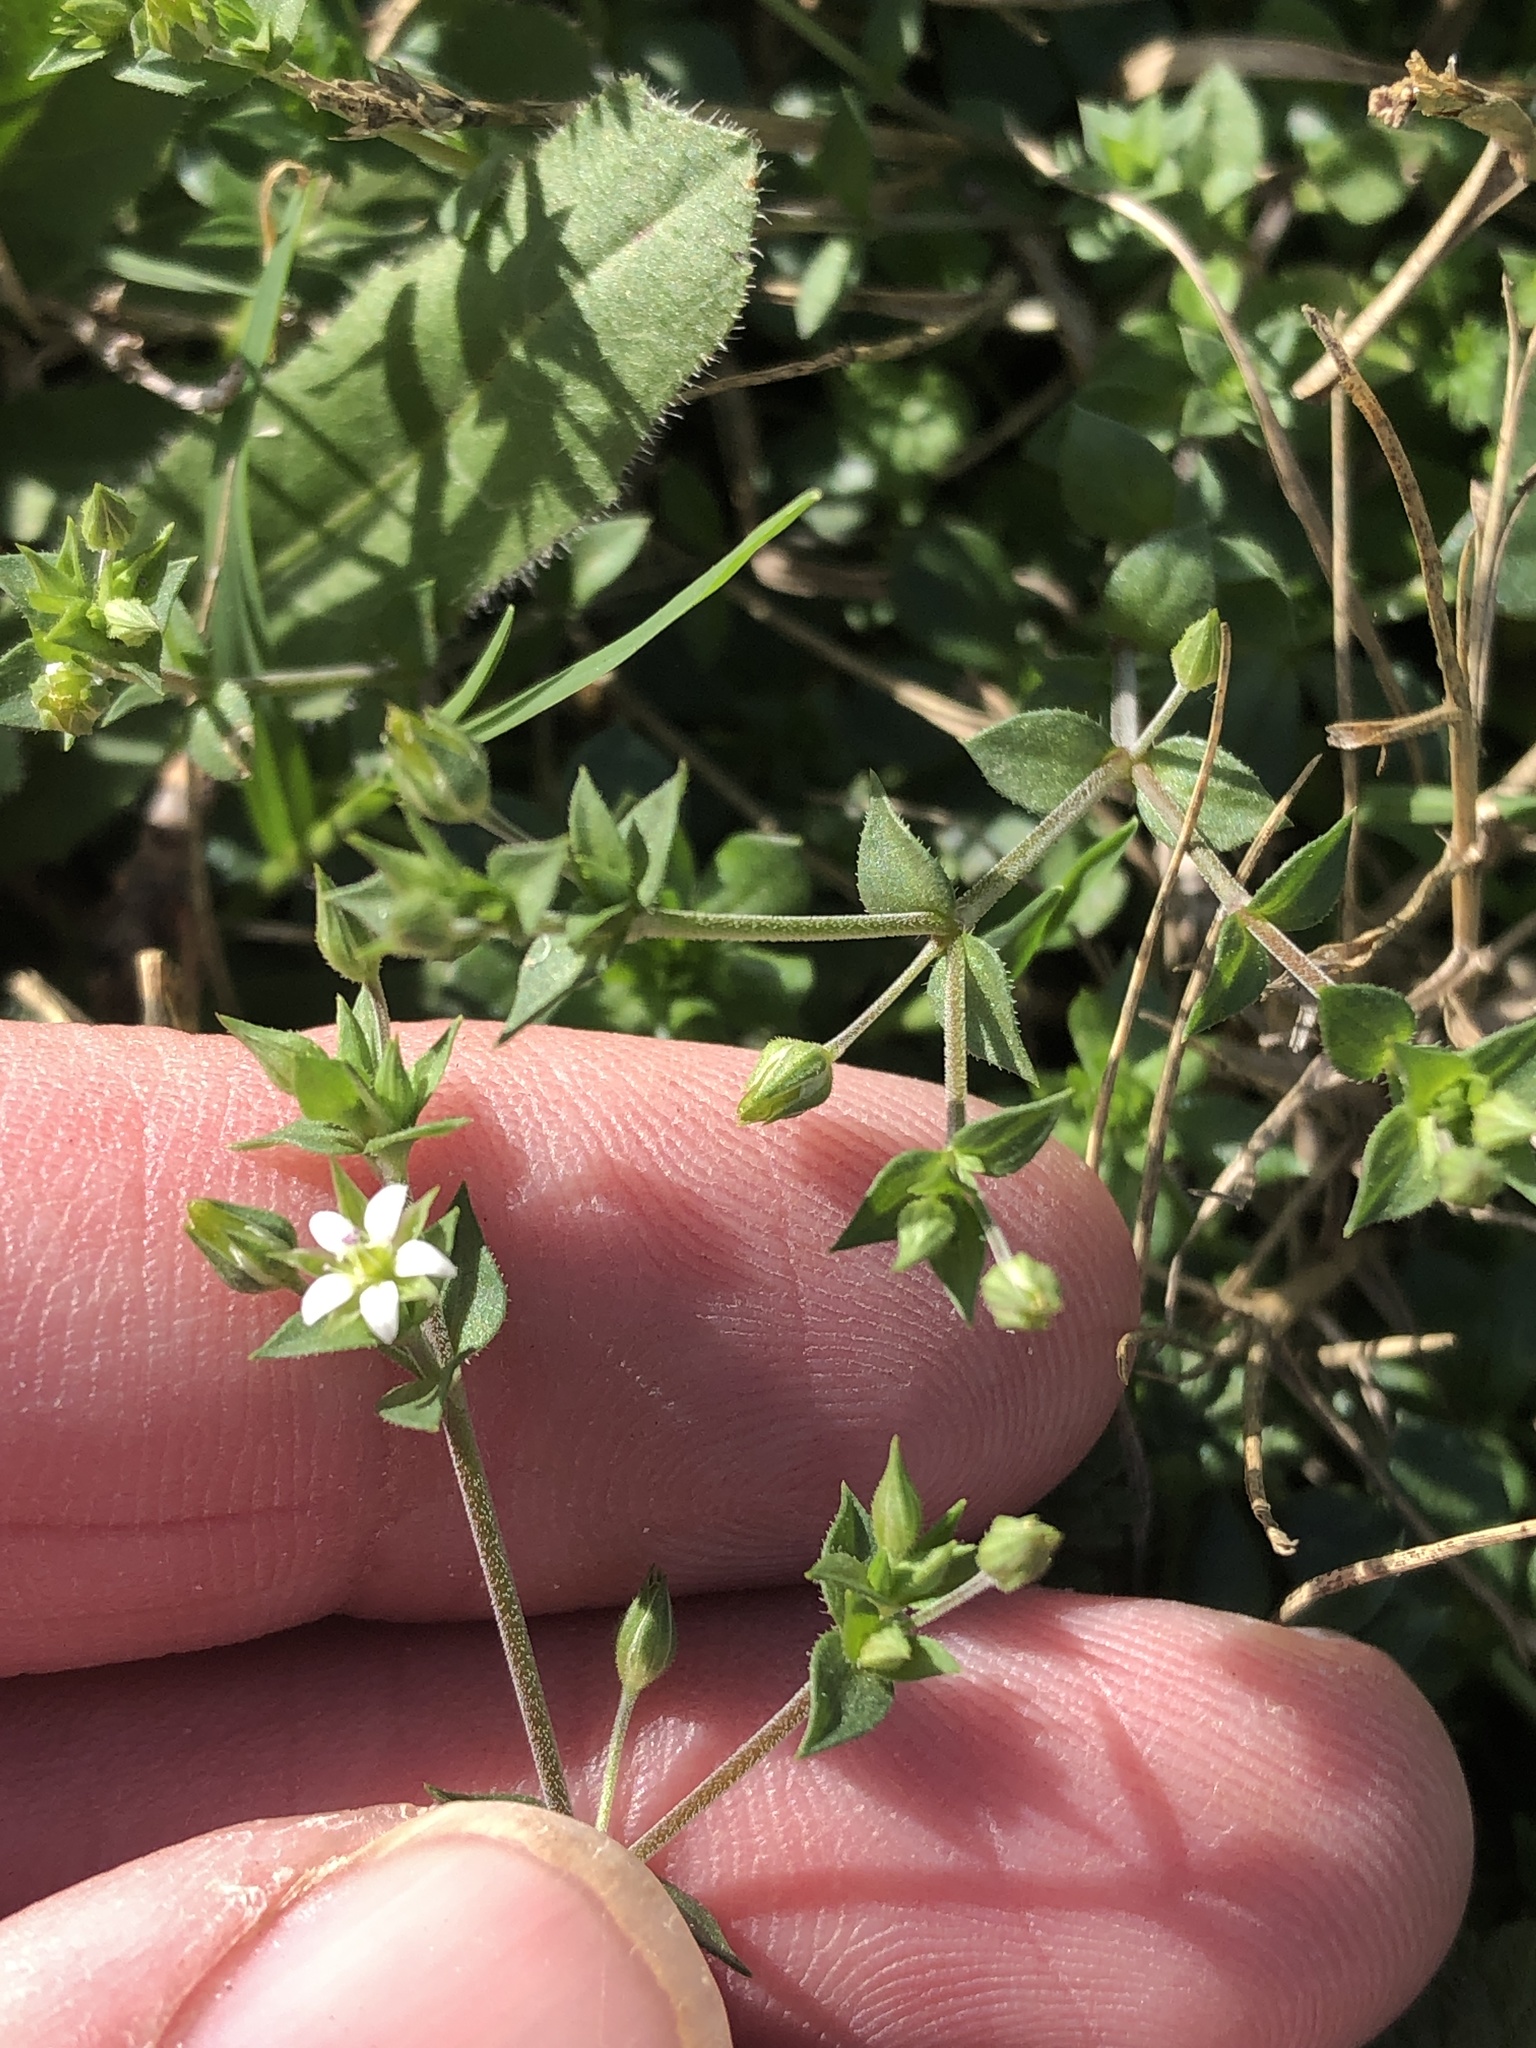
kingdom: Plantae
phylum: Tracheophyta
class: Magnoliopsida
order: Caryophyllales
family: Caryophyllaceae
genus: Arenaria
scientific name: Arenaria serpyllifolia
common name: Thyme-leaved sandwort
